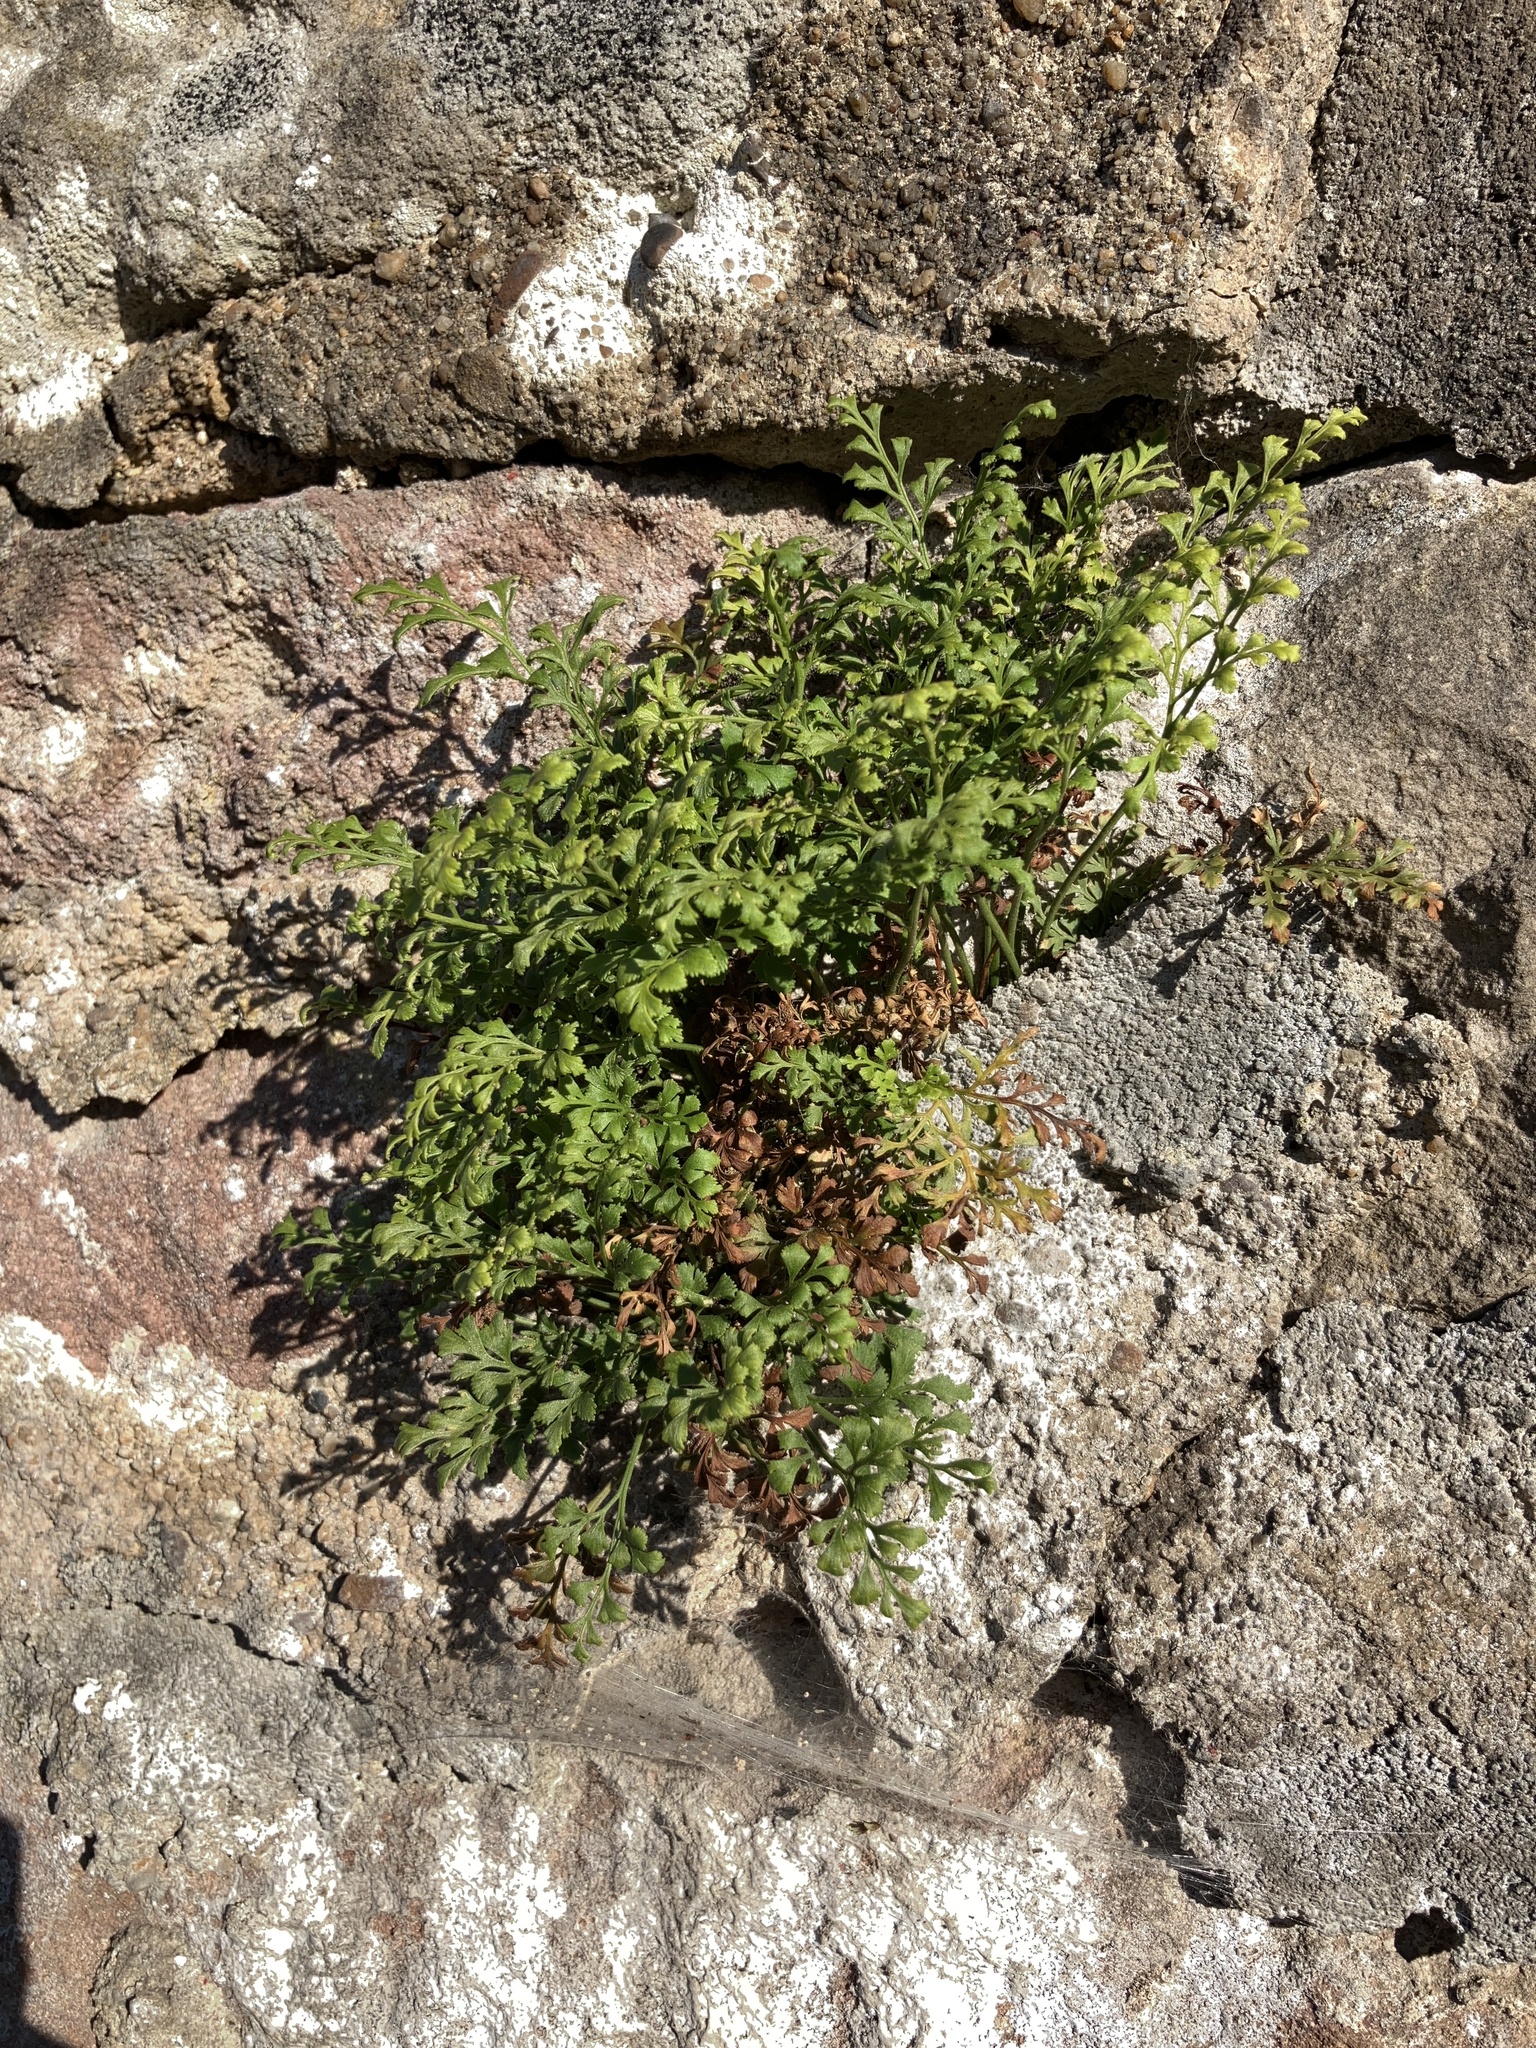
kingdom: Plantae
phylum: Tracheophyta
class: Polypodiopsida
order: Polypodiales
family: Aspleniaceae
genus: Asplenium
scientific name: Asplenium ruta-muraria
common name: Wall-rue
